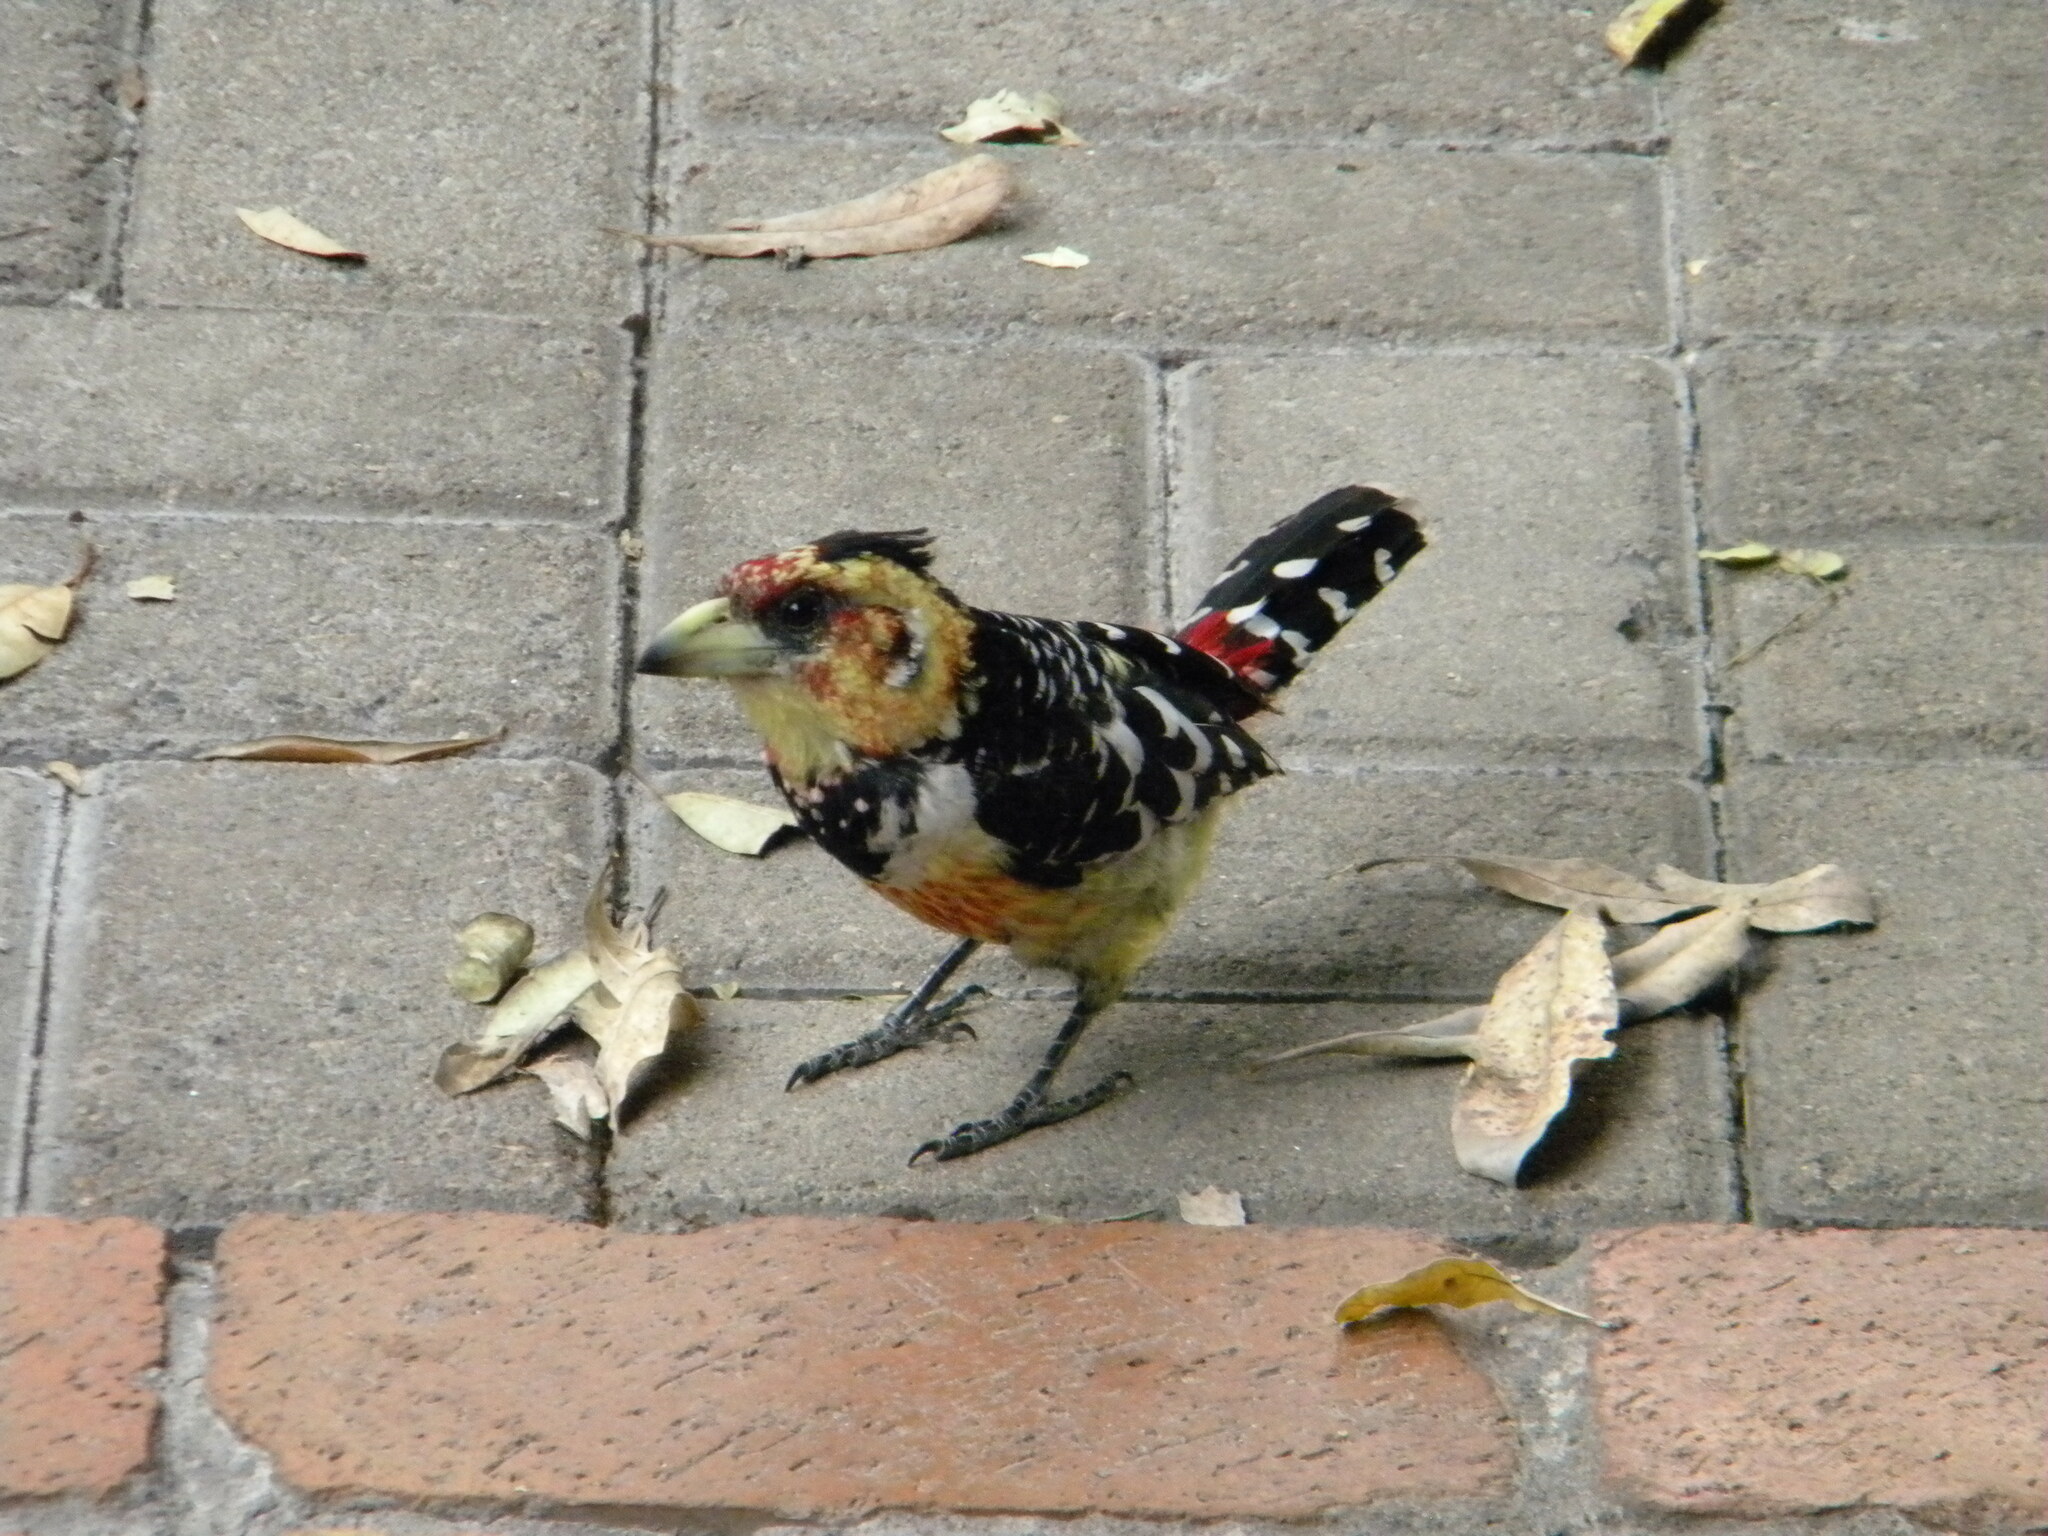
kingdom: Animalia
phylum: Chordata
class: Aves
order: Piciformes
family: Lybiidae
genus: Trachyphonus
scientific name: Trachyphonus vaillantii
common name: Crested barbet
